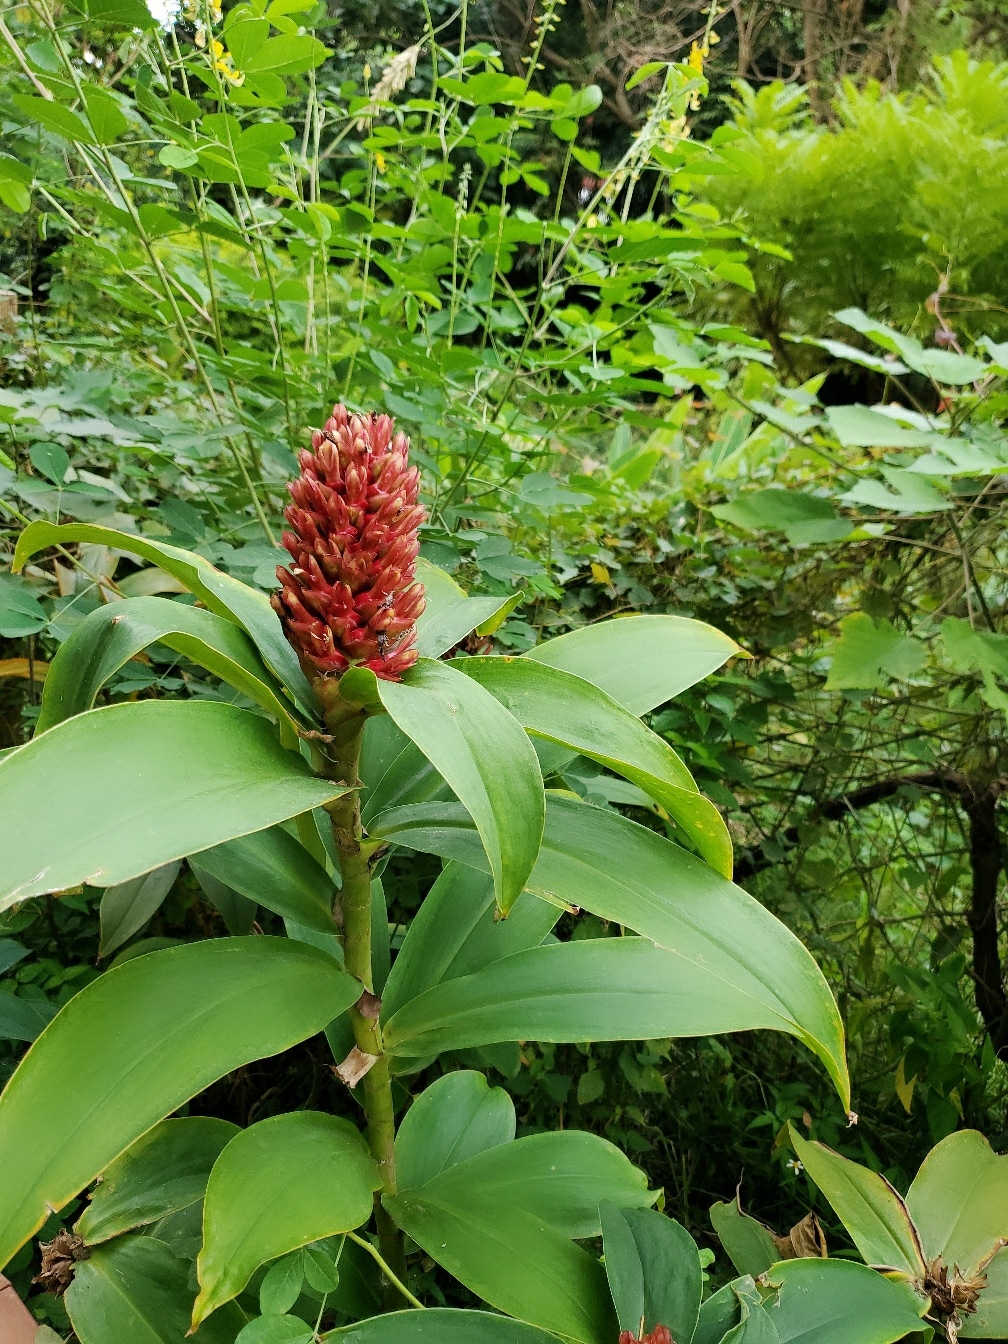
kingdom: Plantae
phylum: Tracheophyta
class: Liliopsida
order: Zingiberales
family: Costaceae
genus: Hellenia
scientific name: Hellenia speciosa
